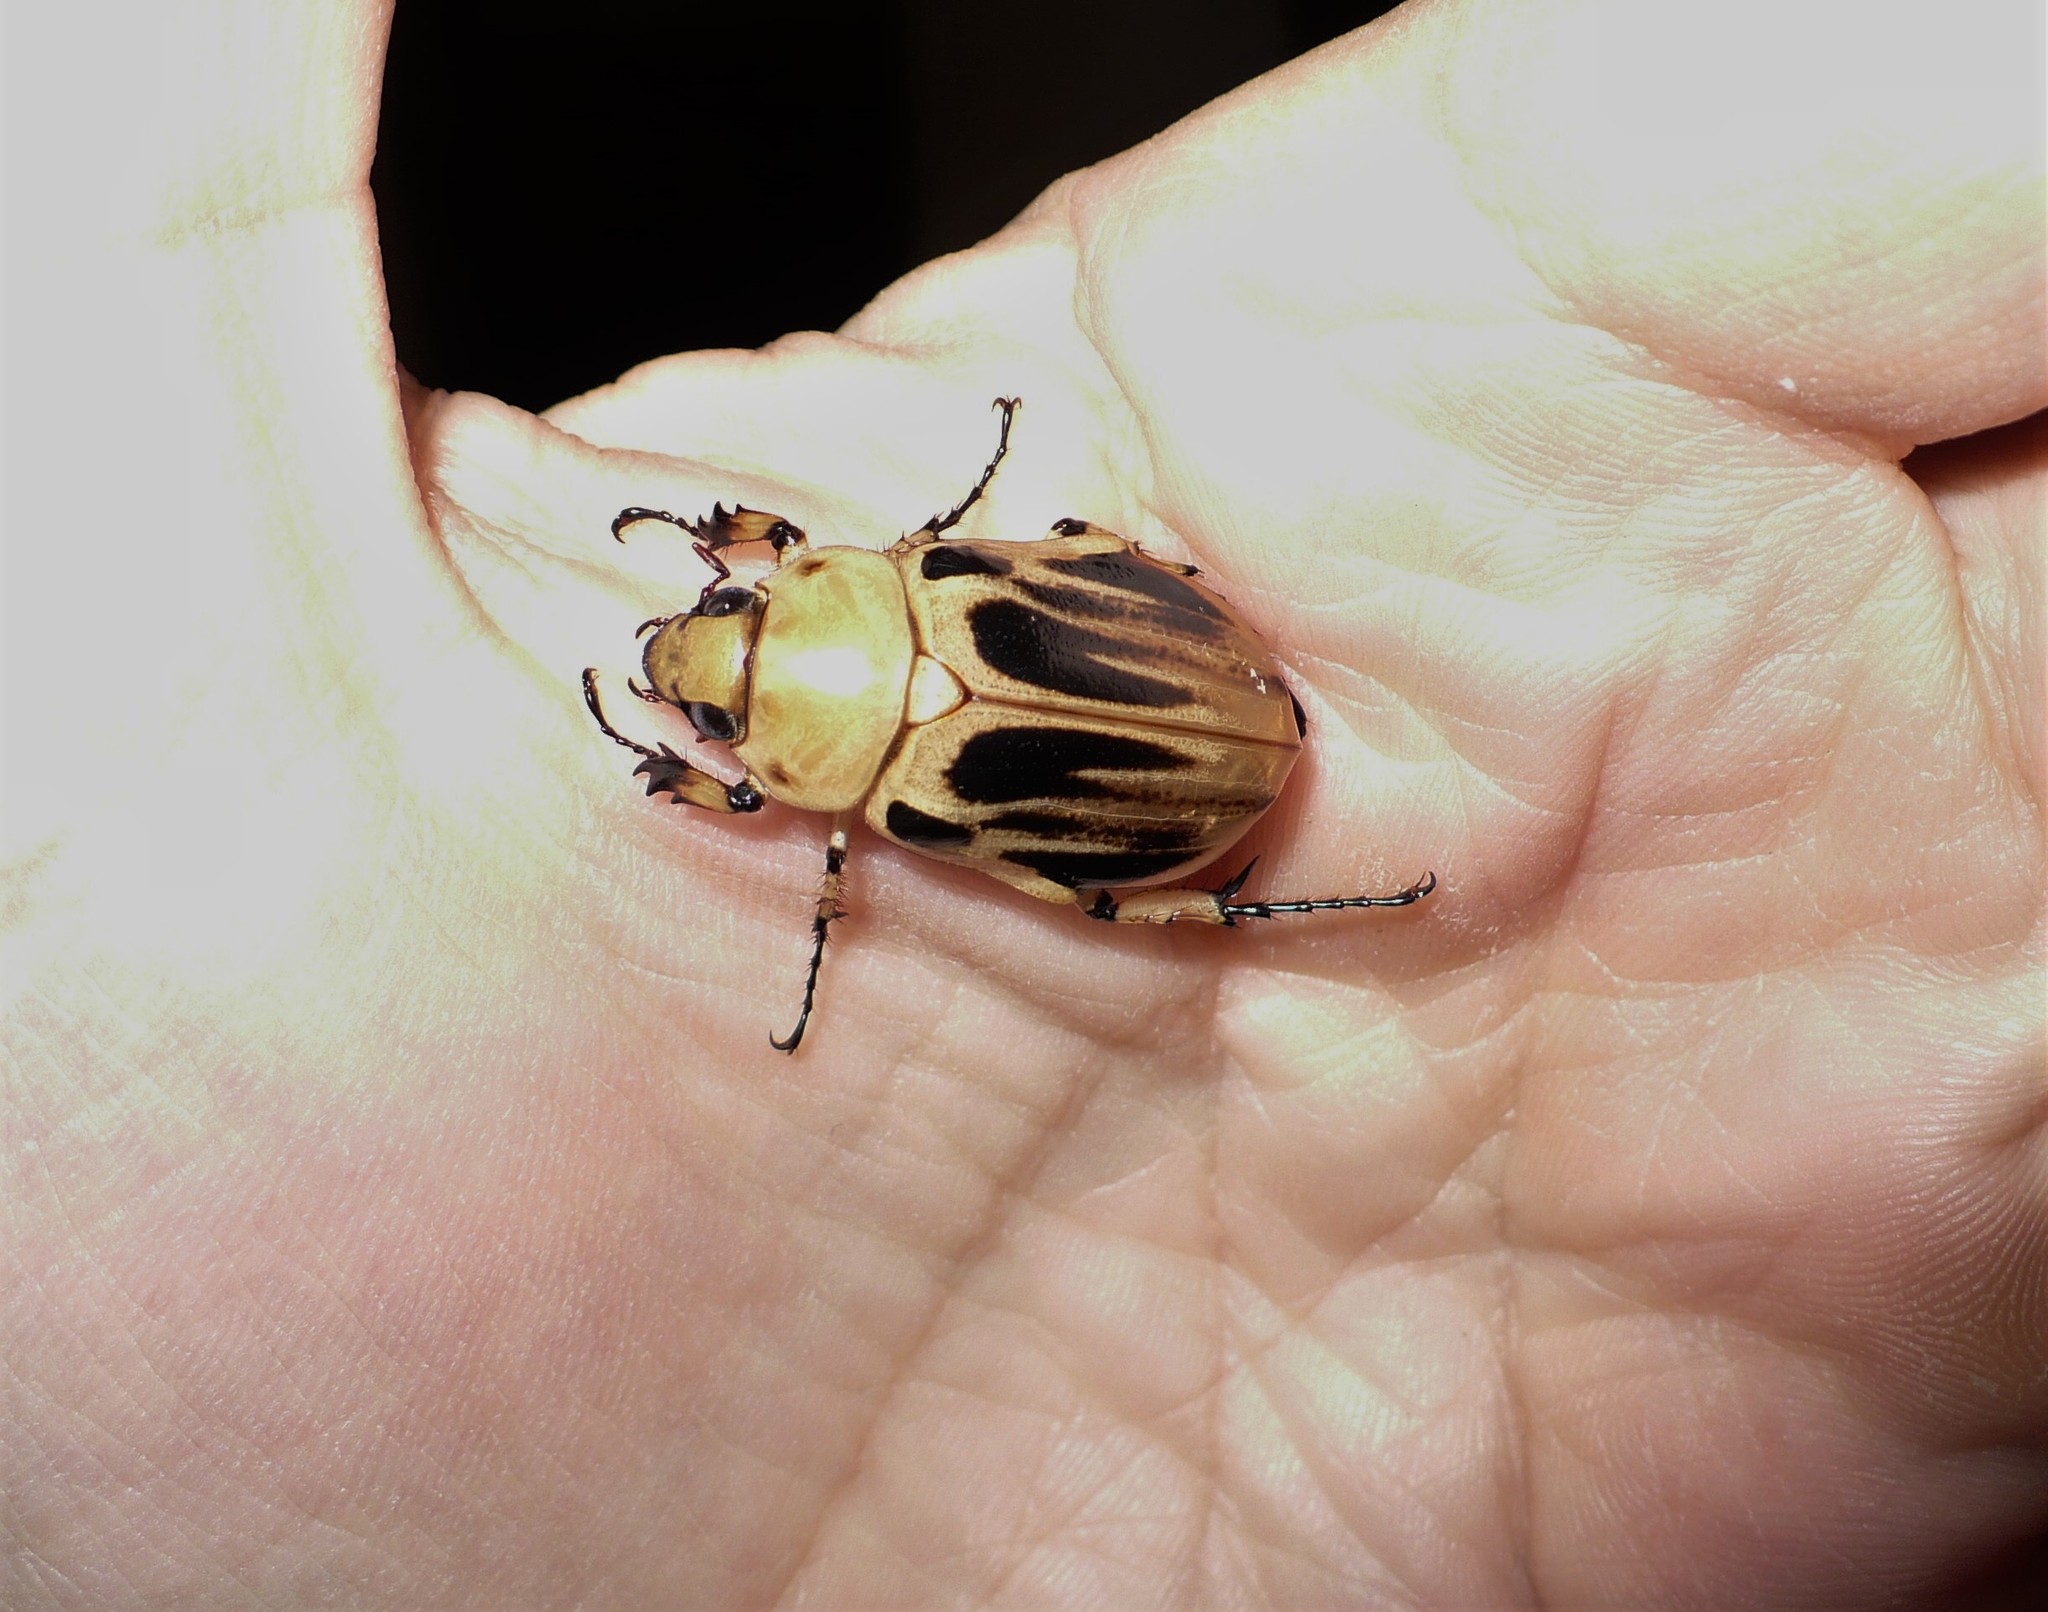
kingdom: Animalia
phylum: Arthropoda
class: Insecta
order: Coleoptera
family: Scarabaeidae
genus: Ancognatha
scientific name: Ancognatha vulgaris
